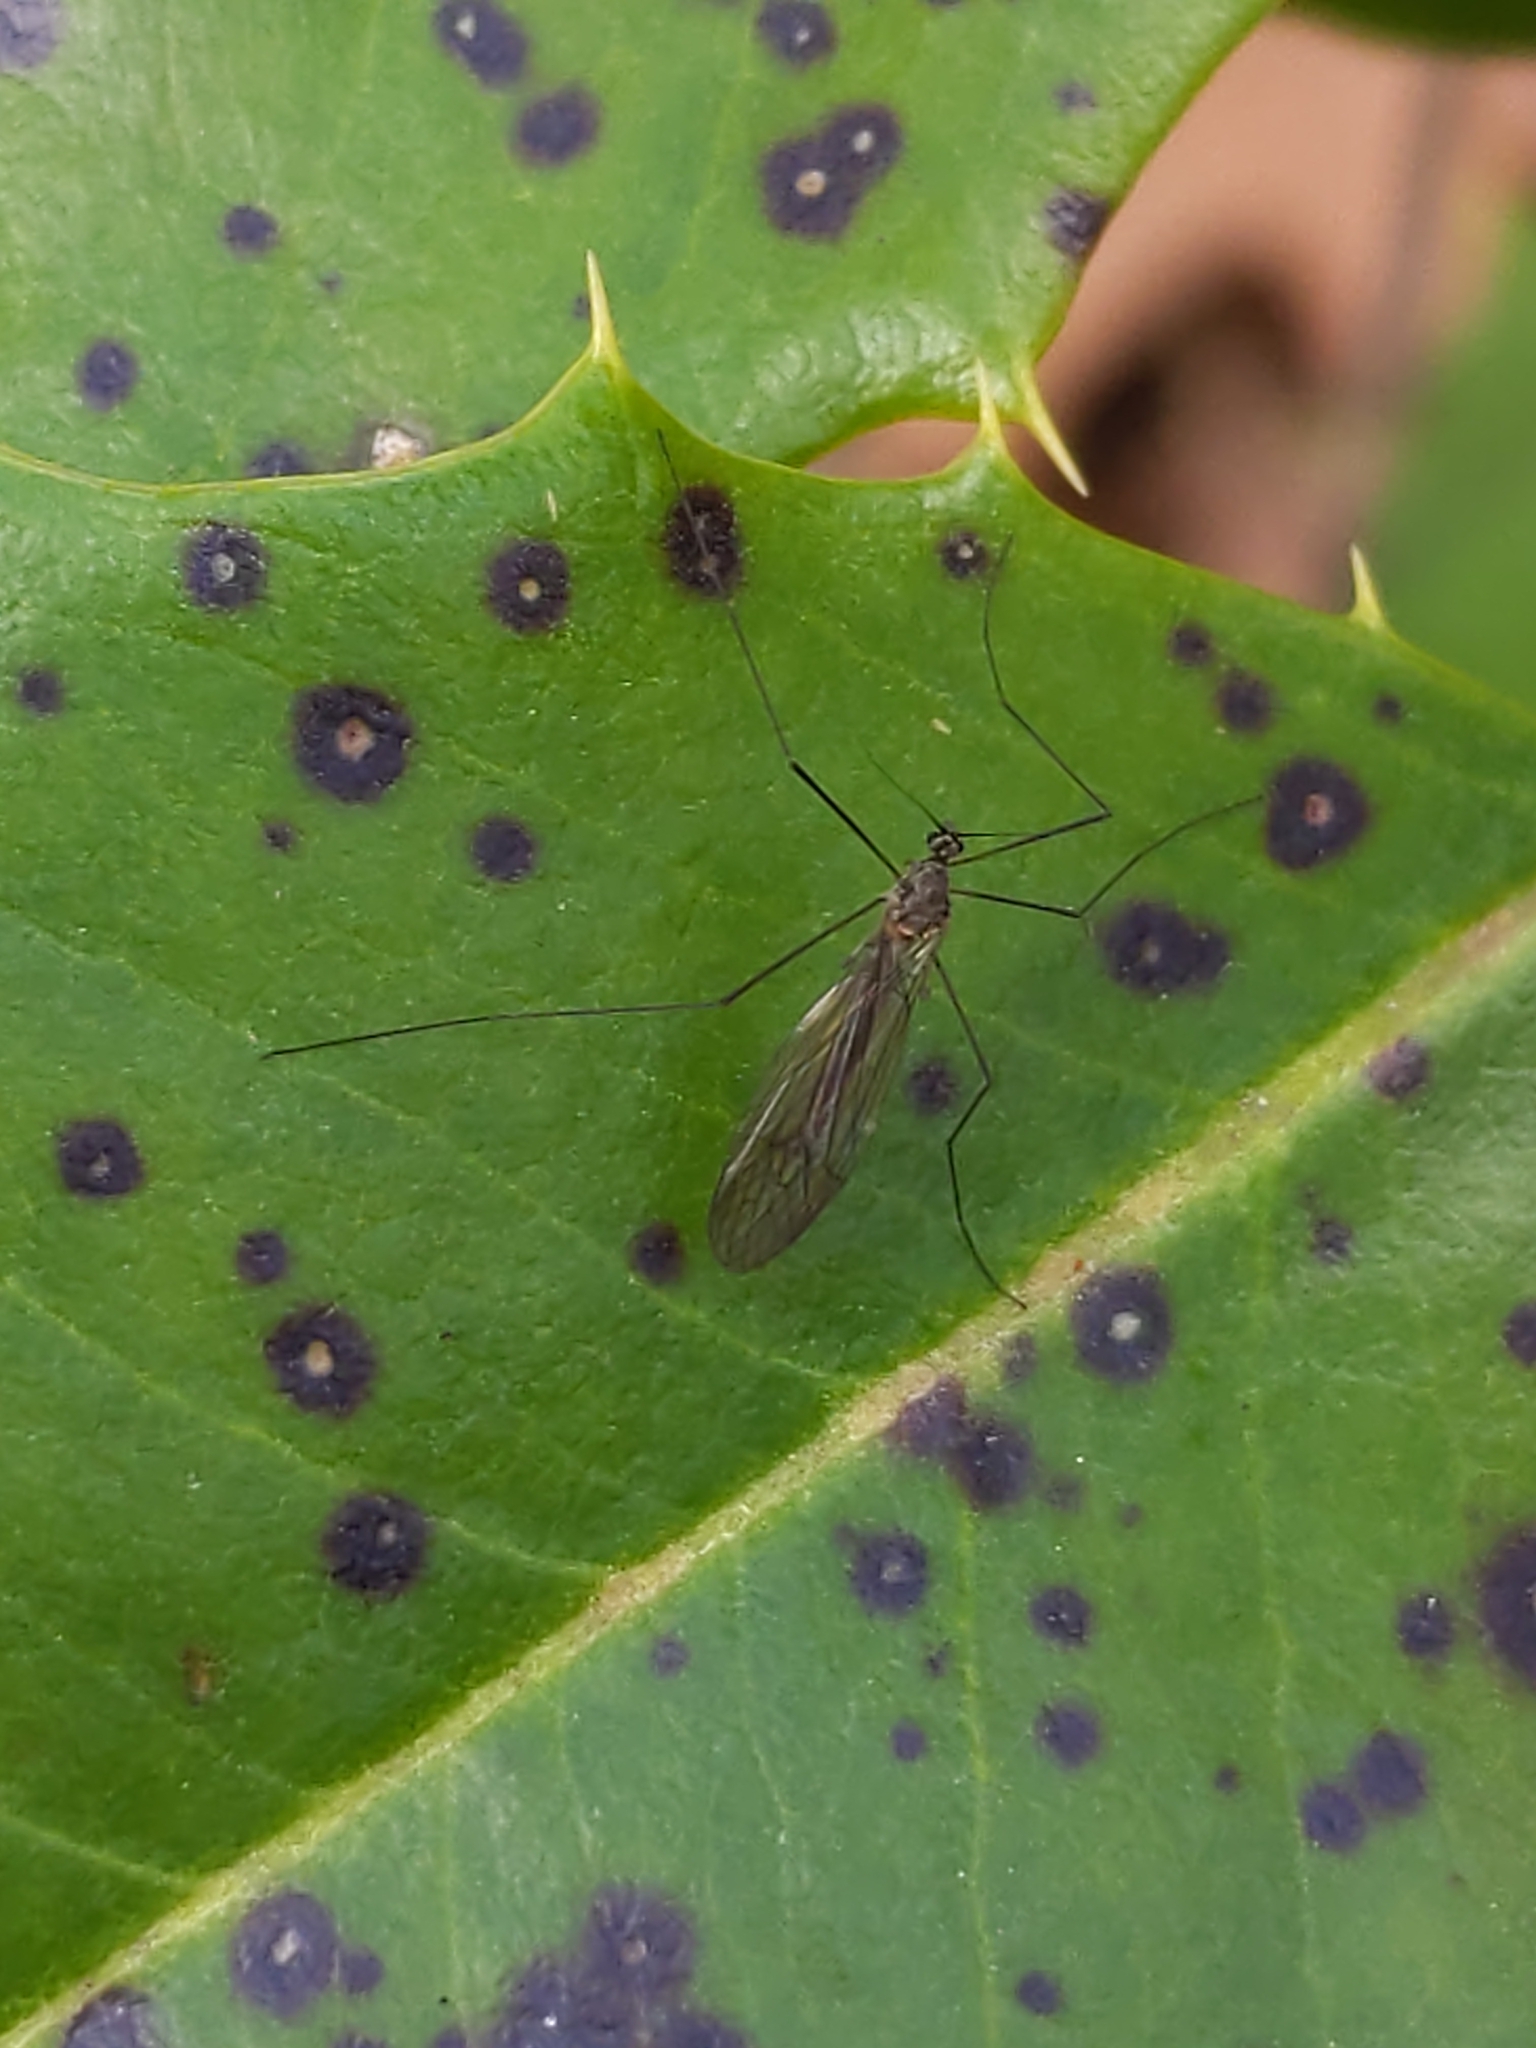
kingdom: Animalia
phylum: Arthropoda
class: Insecta
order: Diptera
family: Trichoceridae
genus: Trichocera
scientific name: Trichocera
